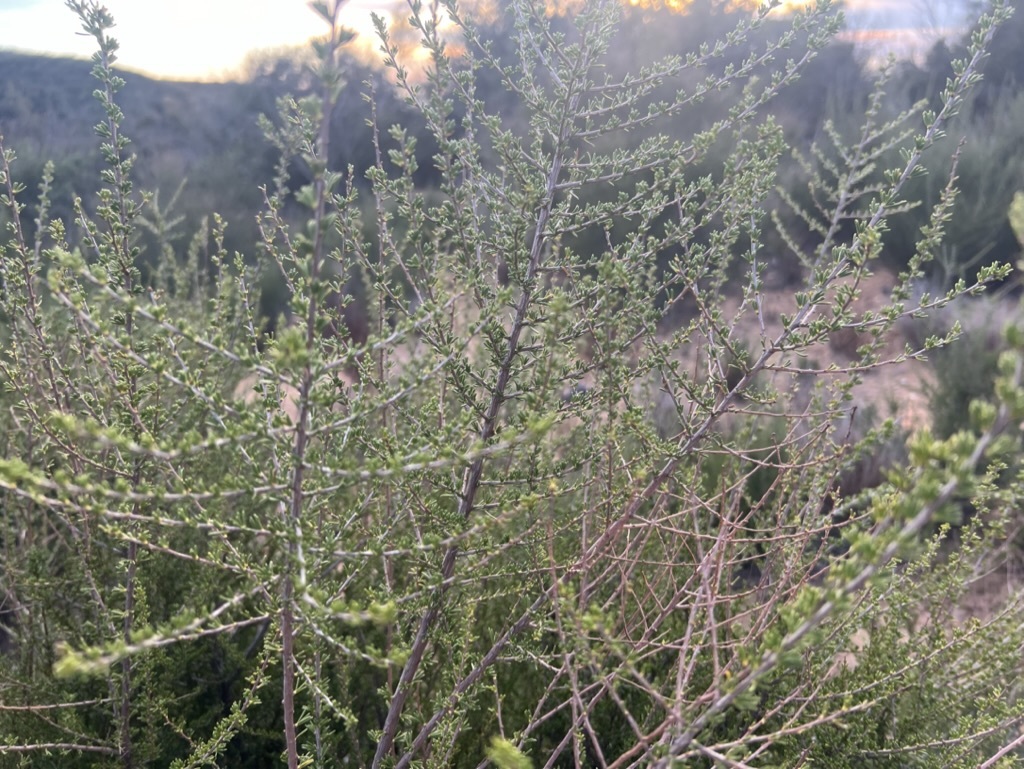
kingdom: Plantae
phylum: Tracheophyta
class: Magnoliopsida
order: Rosales
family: Rosaceae
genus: Adenostoma
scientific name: Adenostoma fasciculatum
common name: Chamise
